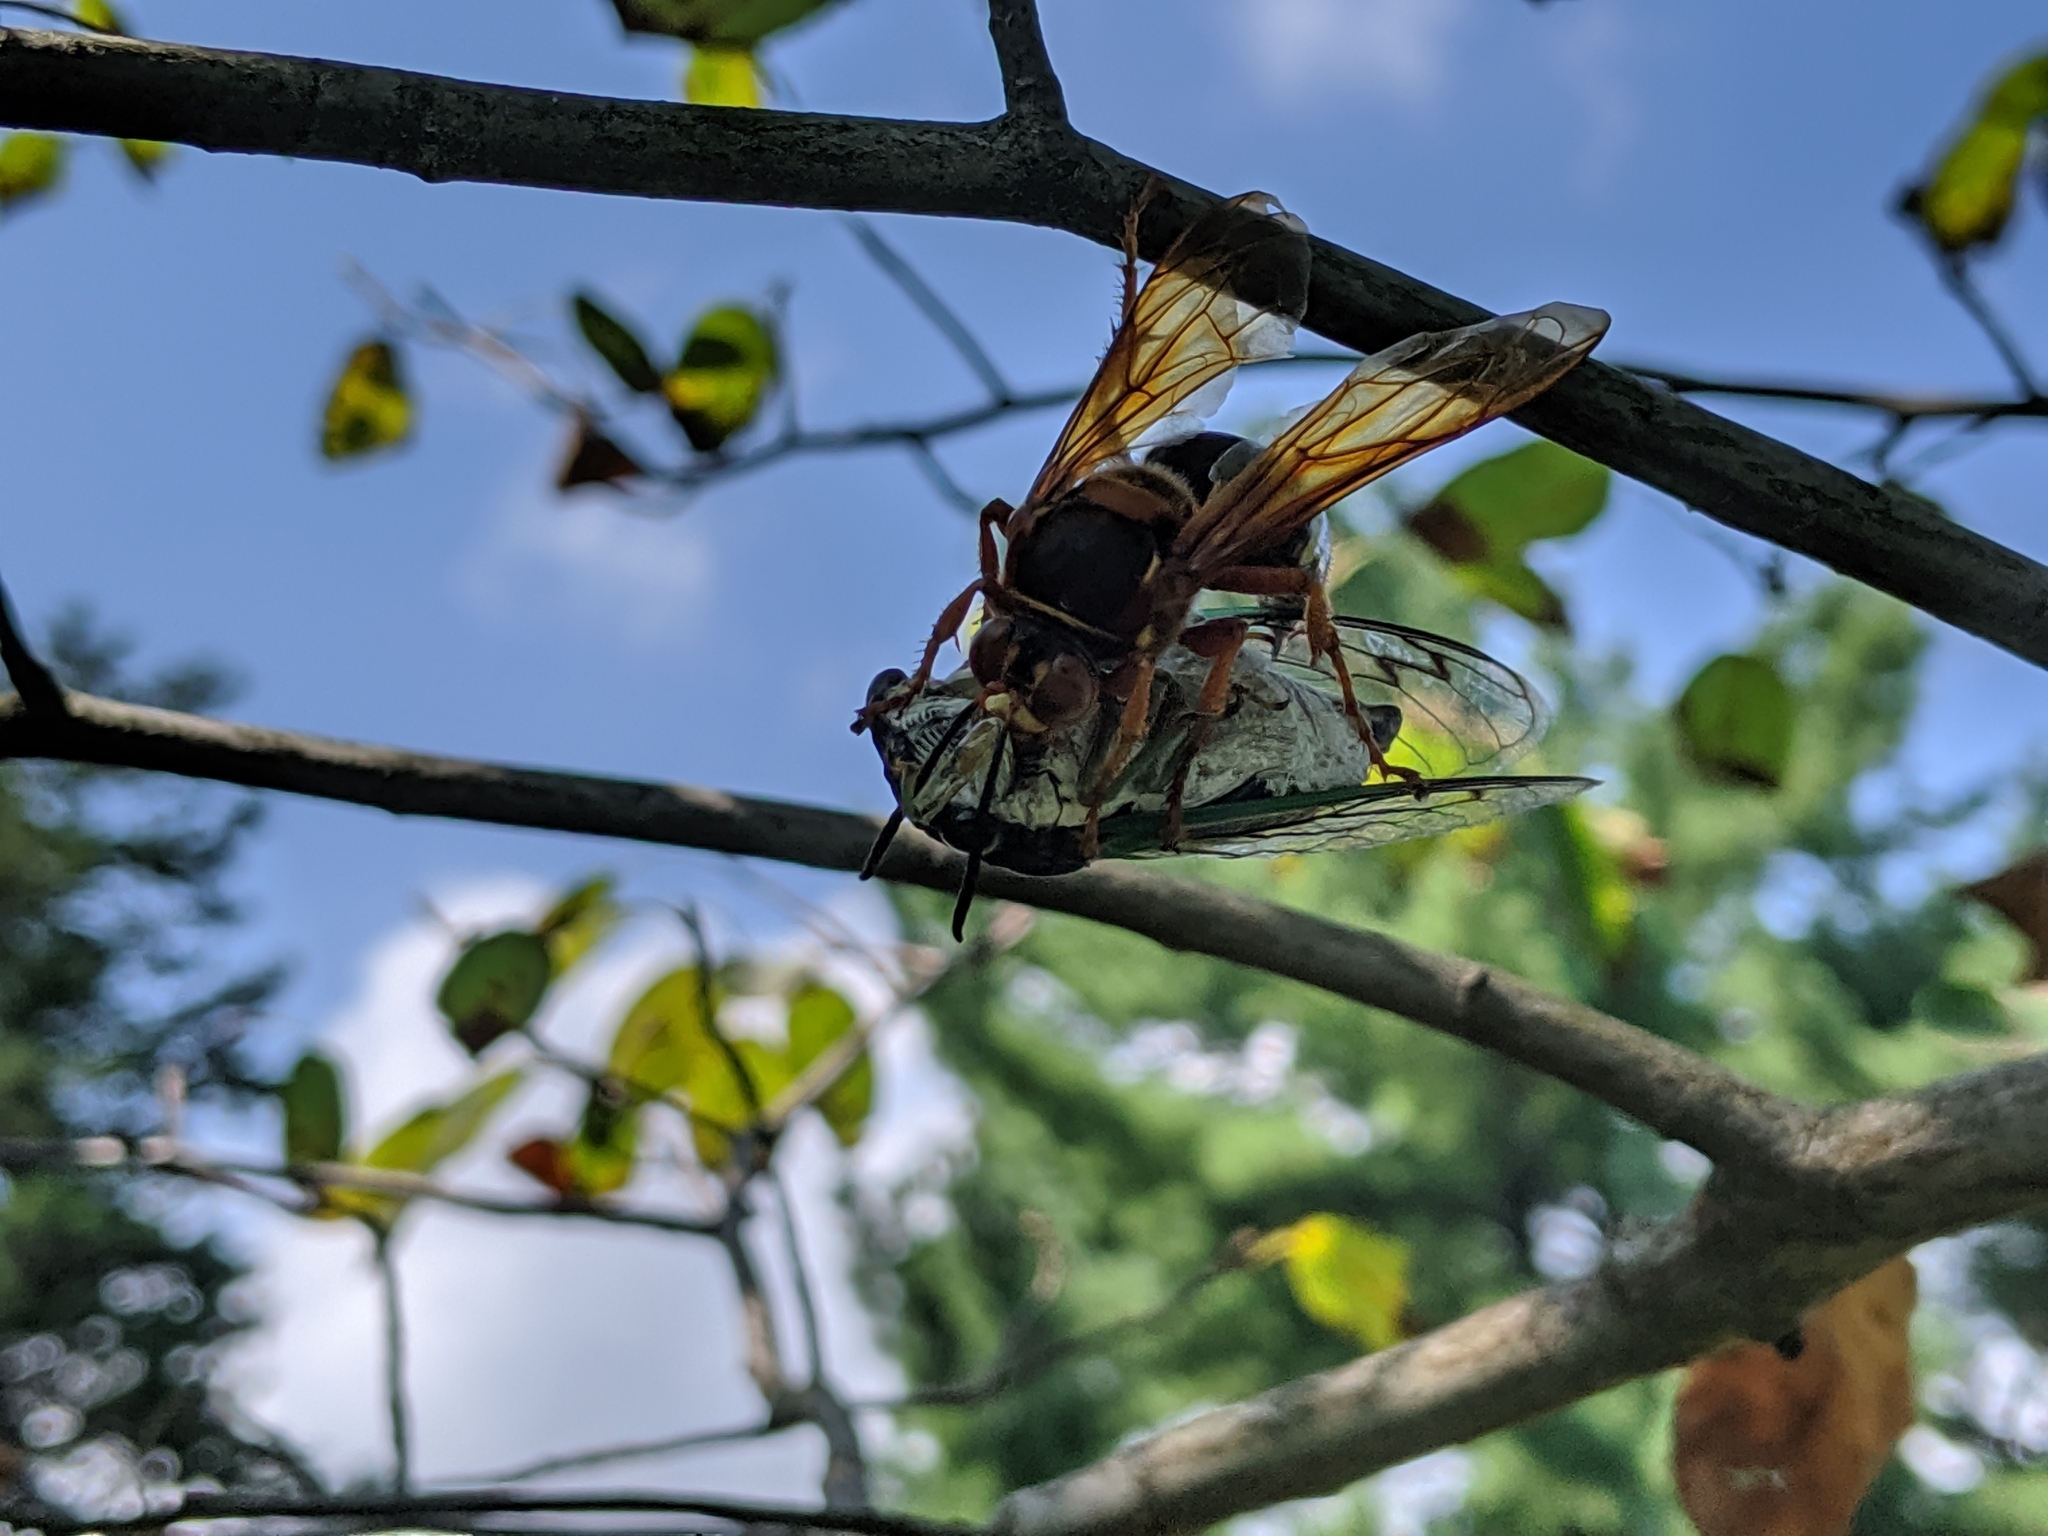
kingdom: Animalia
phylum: Arthropoda
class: Insecta
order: Hymenoptera
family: Crabronidae
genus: Sphecius
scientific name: Sphecius speciosus
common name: Cicada killer
